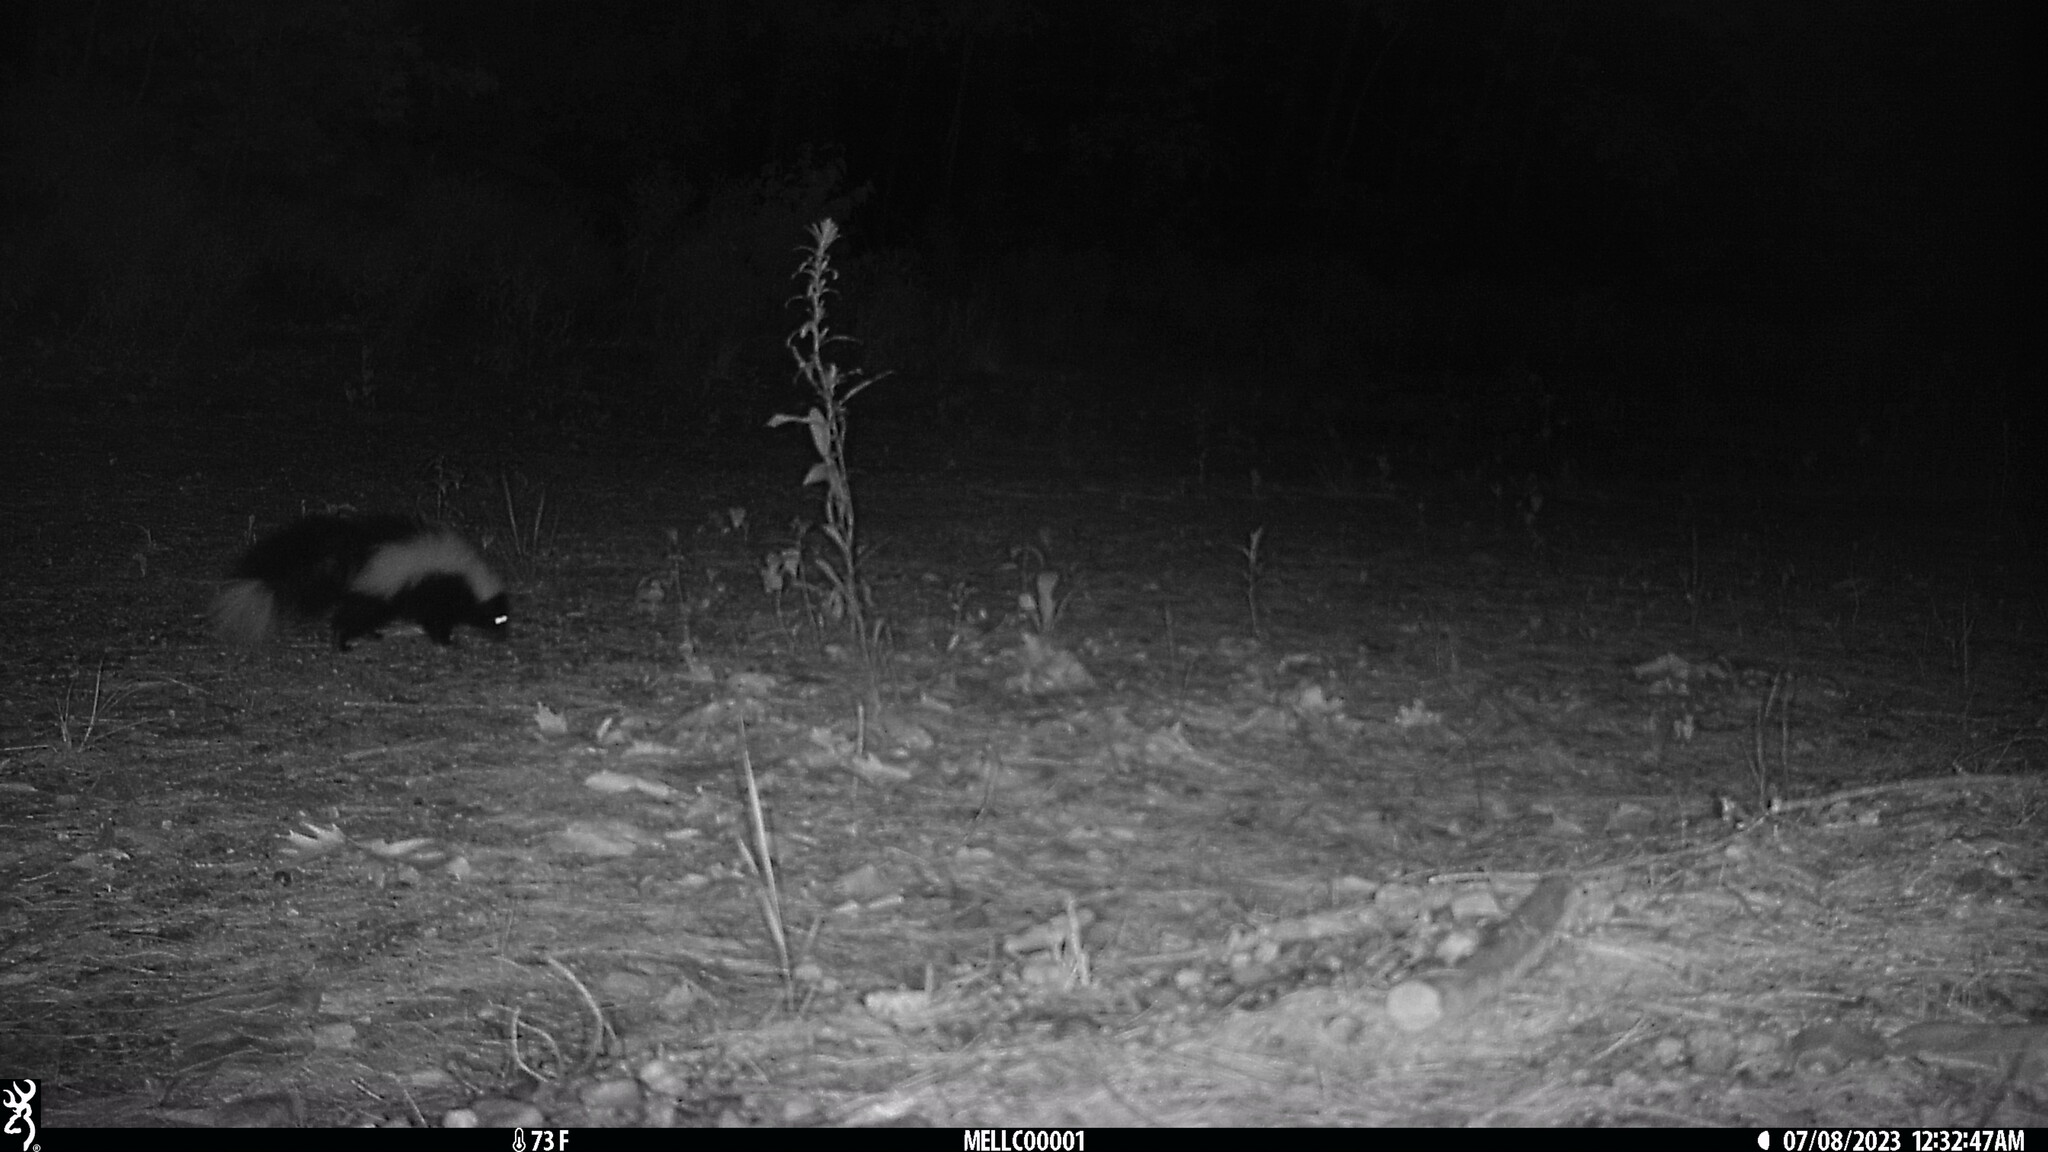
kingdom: Animalia
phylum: Chordata
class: Mammalia
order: Carnivora
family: Mephitidae
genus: Mephitis
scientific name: Mephitis mephitis
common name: Striped skunk
